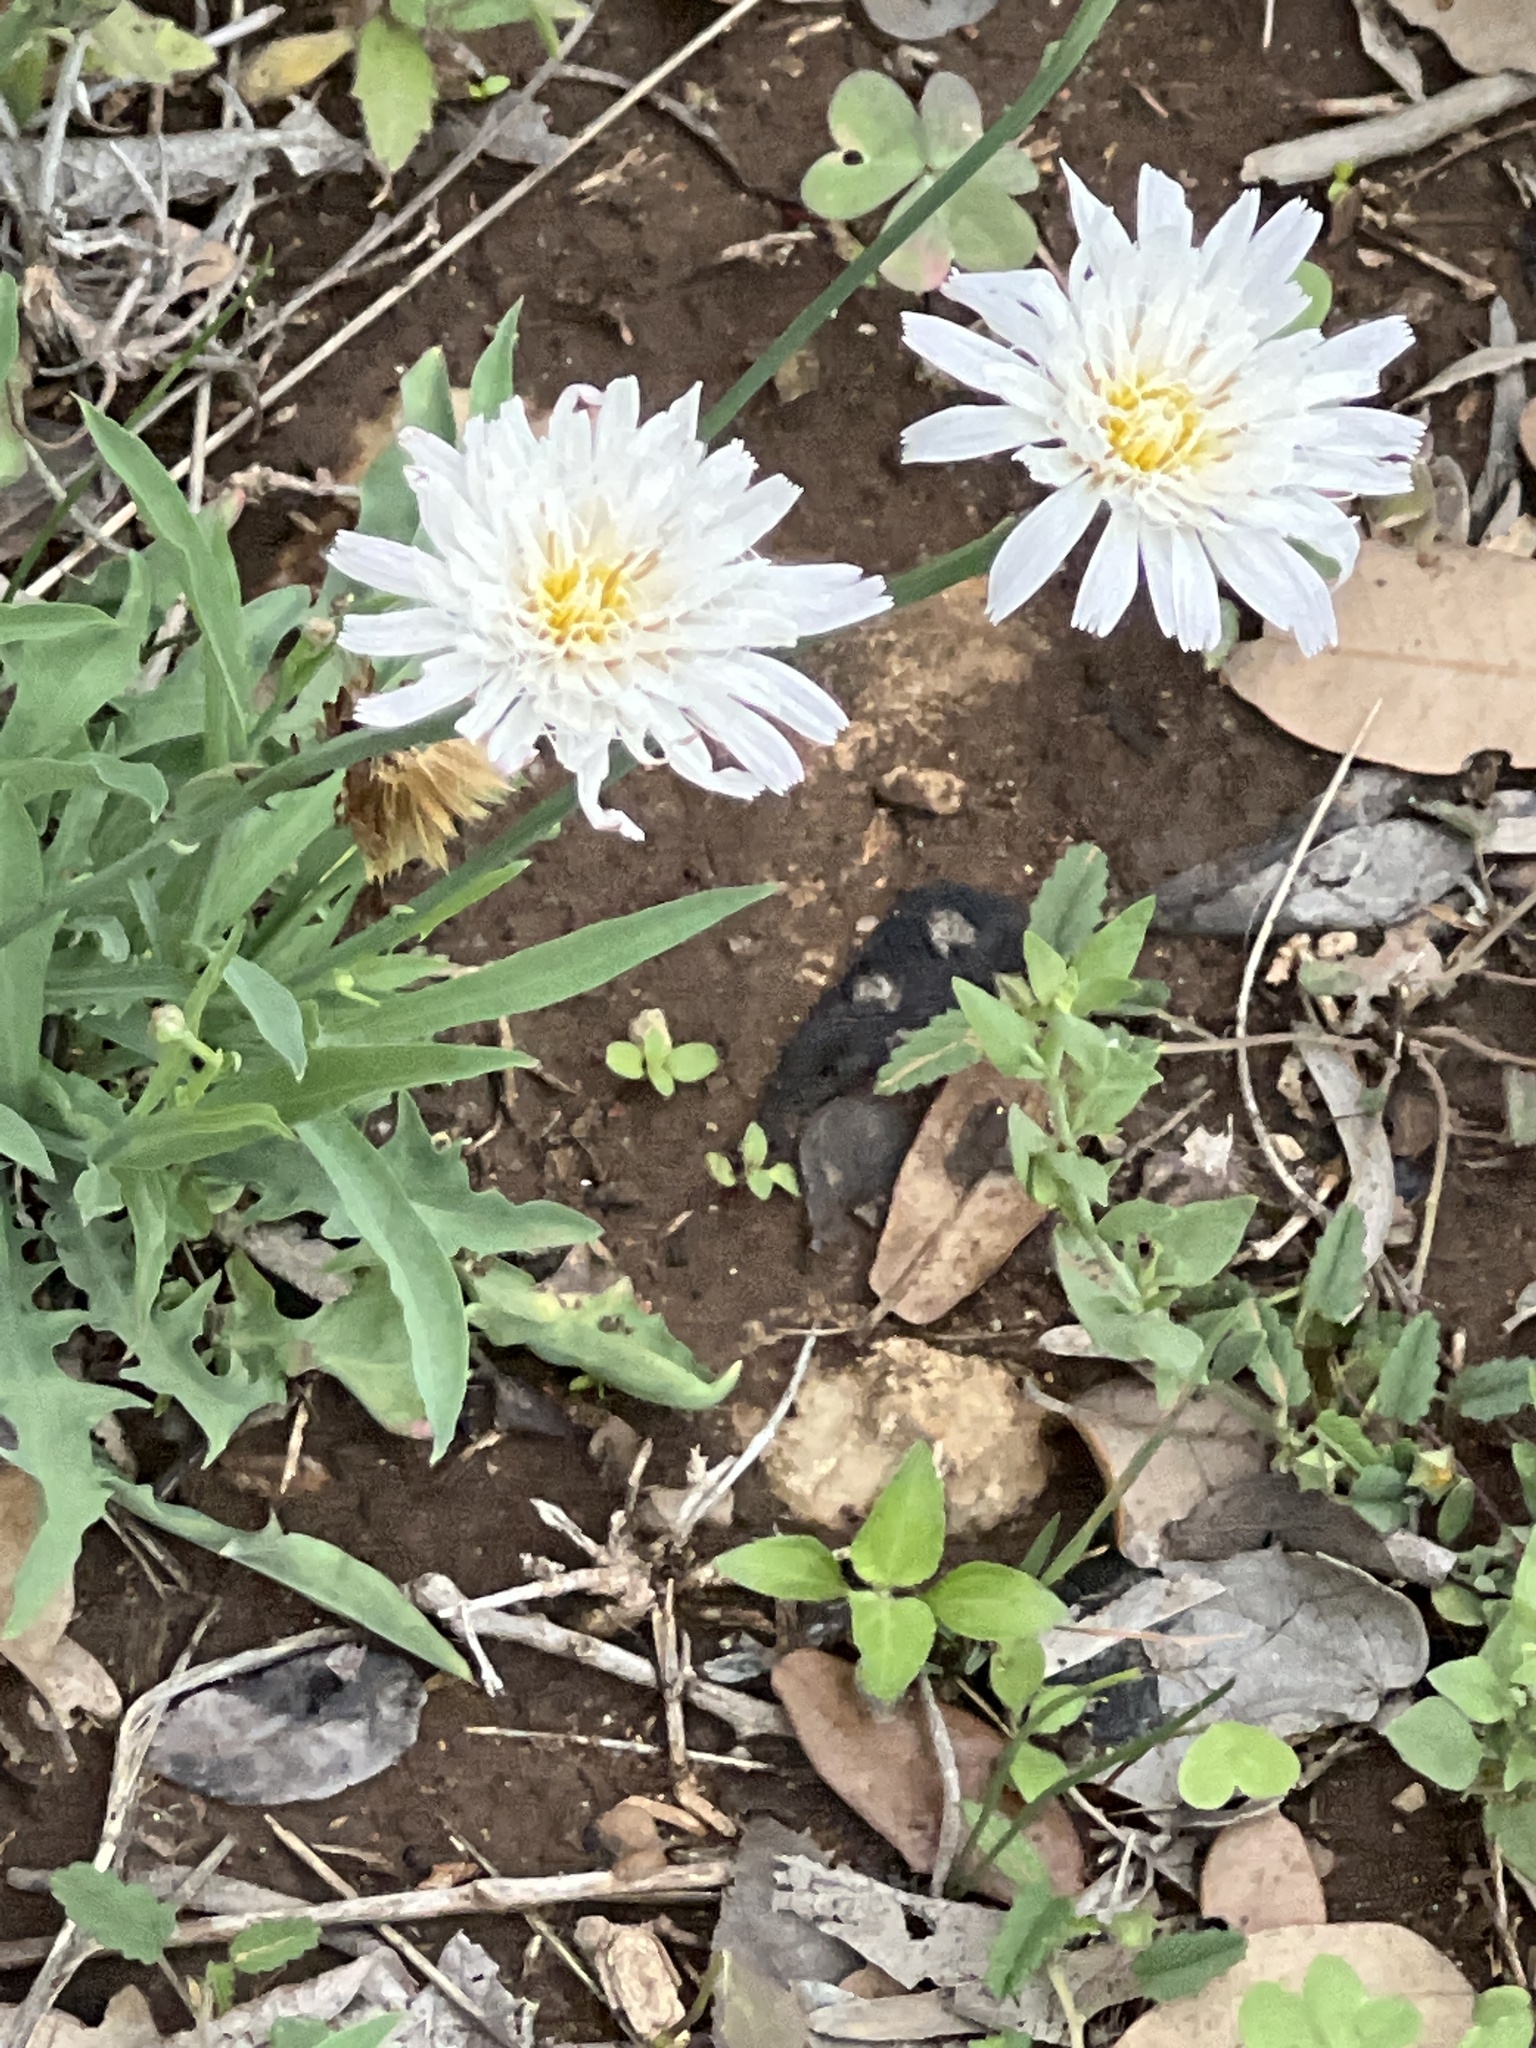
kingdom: Plantae
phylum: Tracheophyta
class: Magnoliopsida
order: Asterales
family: Asteraceae
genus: Pinaropappus
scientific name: Pinaropappus roseus
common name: Rock-lettuce
